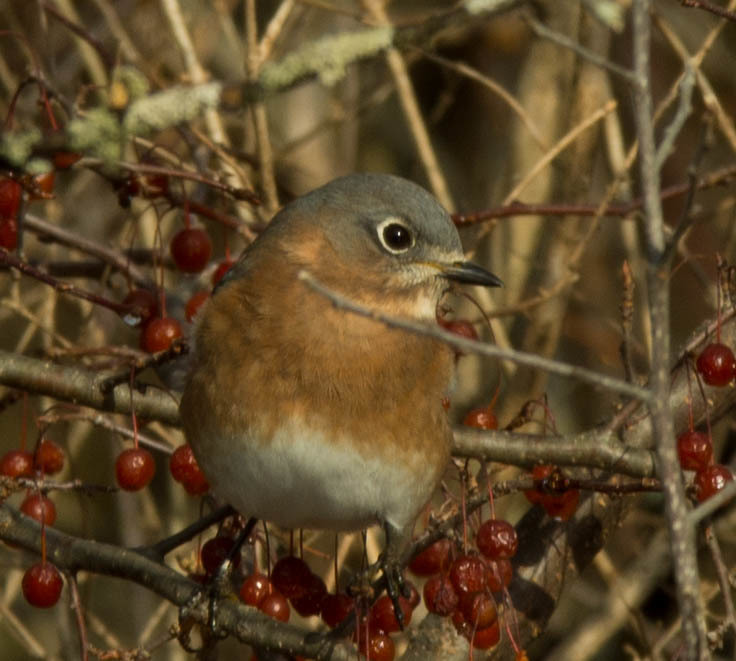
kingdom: Animalia
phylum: Chordata
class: Aves
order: Passeriformes
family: Turdidae
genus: Sialia
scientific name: Sialia sialis
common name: Eastern bluebird
